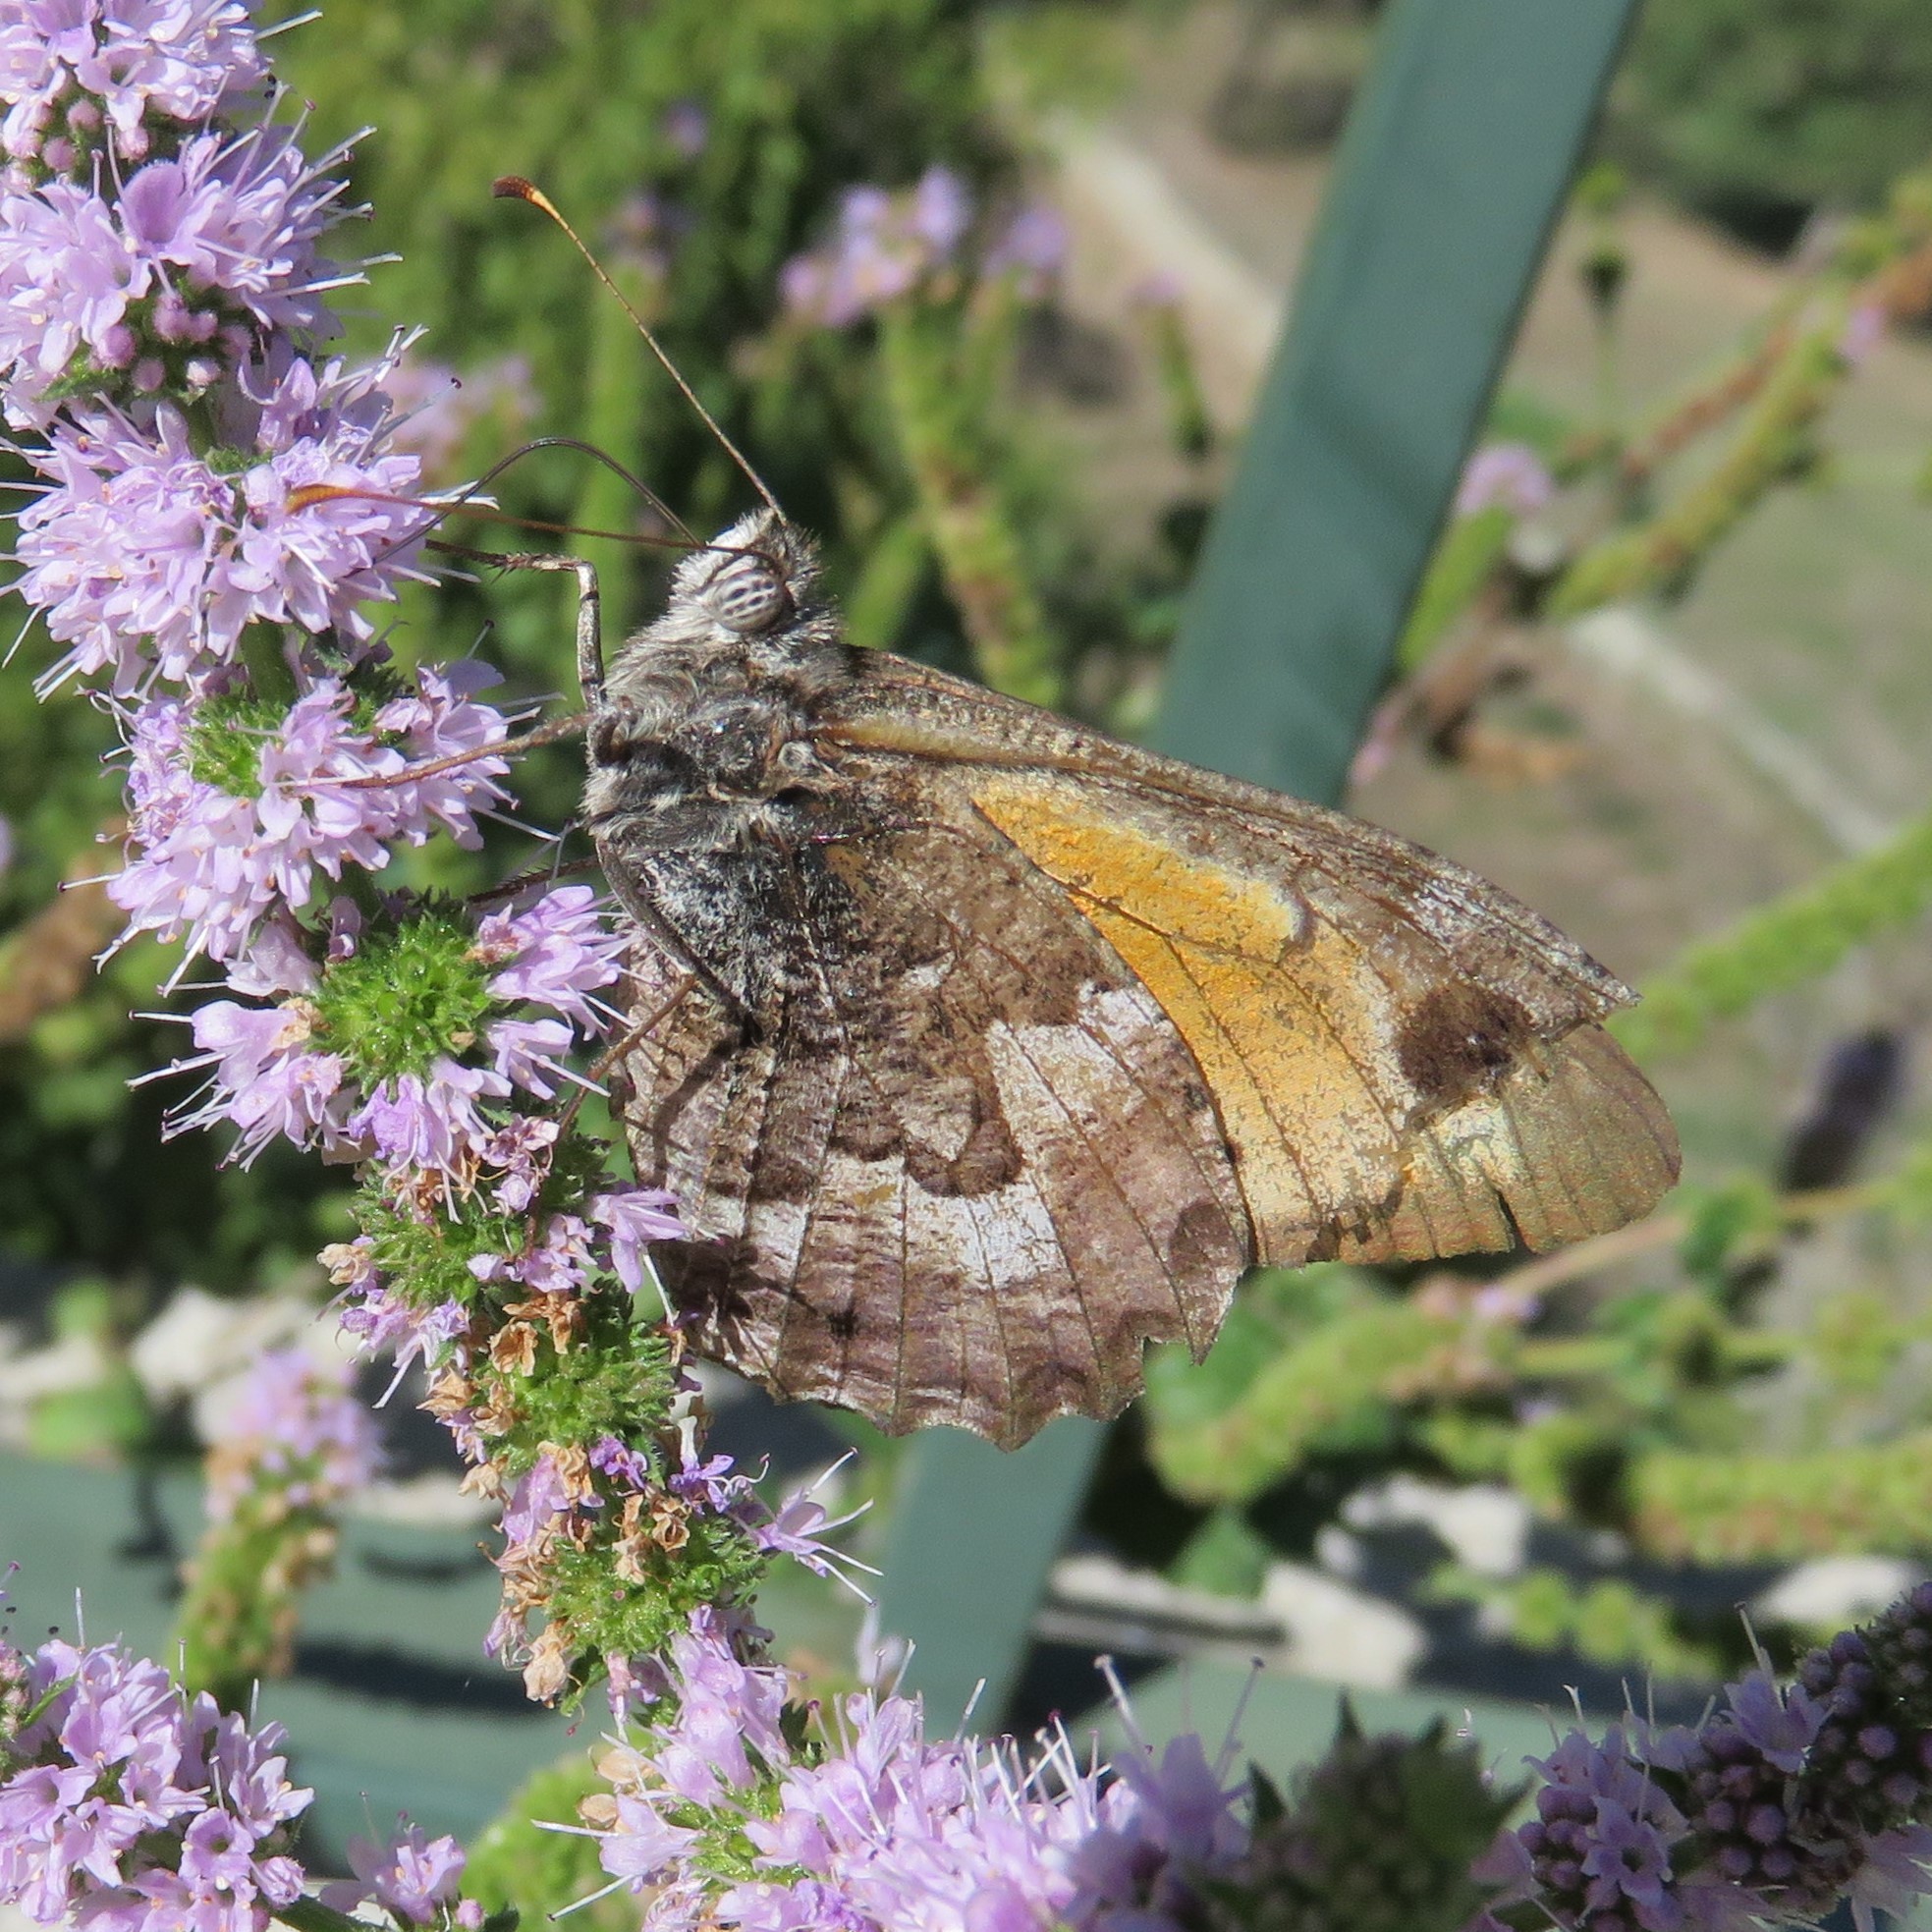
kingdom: Animalia
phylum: Arthropoda
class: Insecta
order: Lepidoptera
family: Nymphalidae
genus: Hipparchia
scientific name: Hipparchia algirica
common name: Mountain grayling
